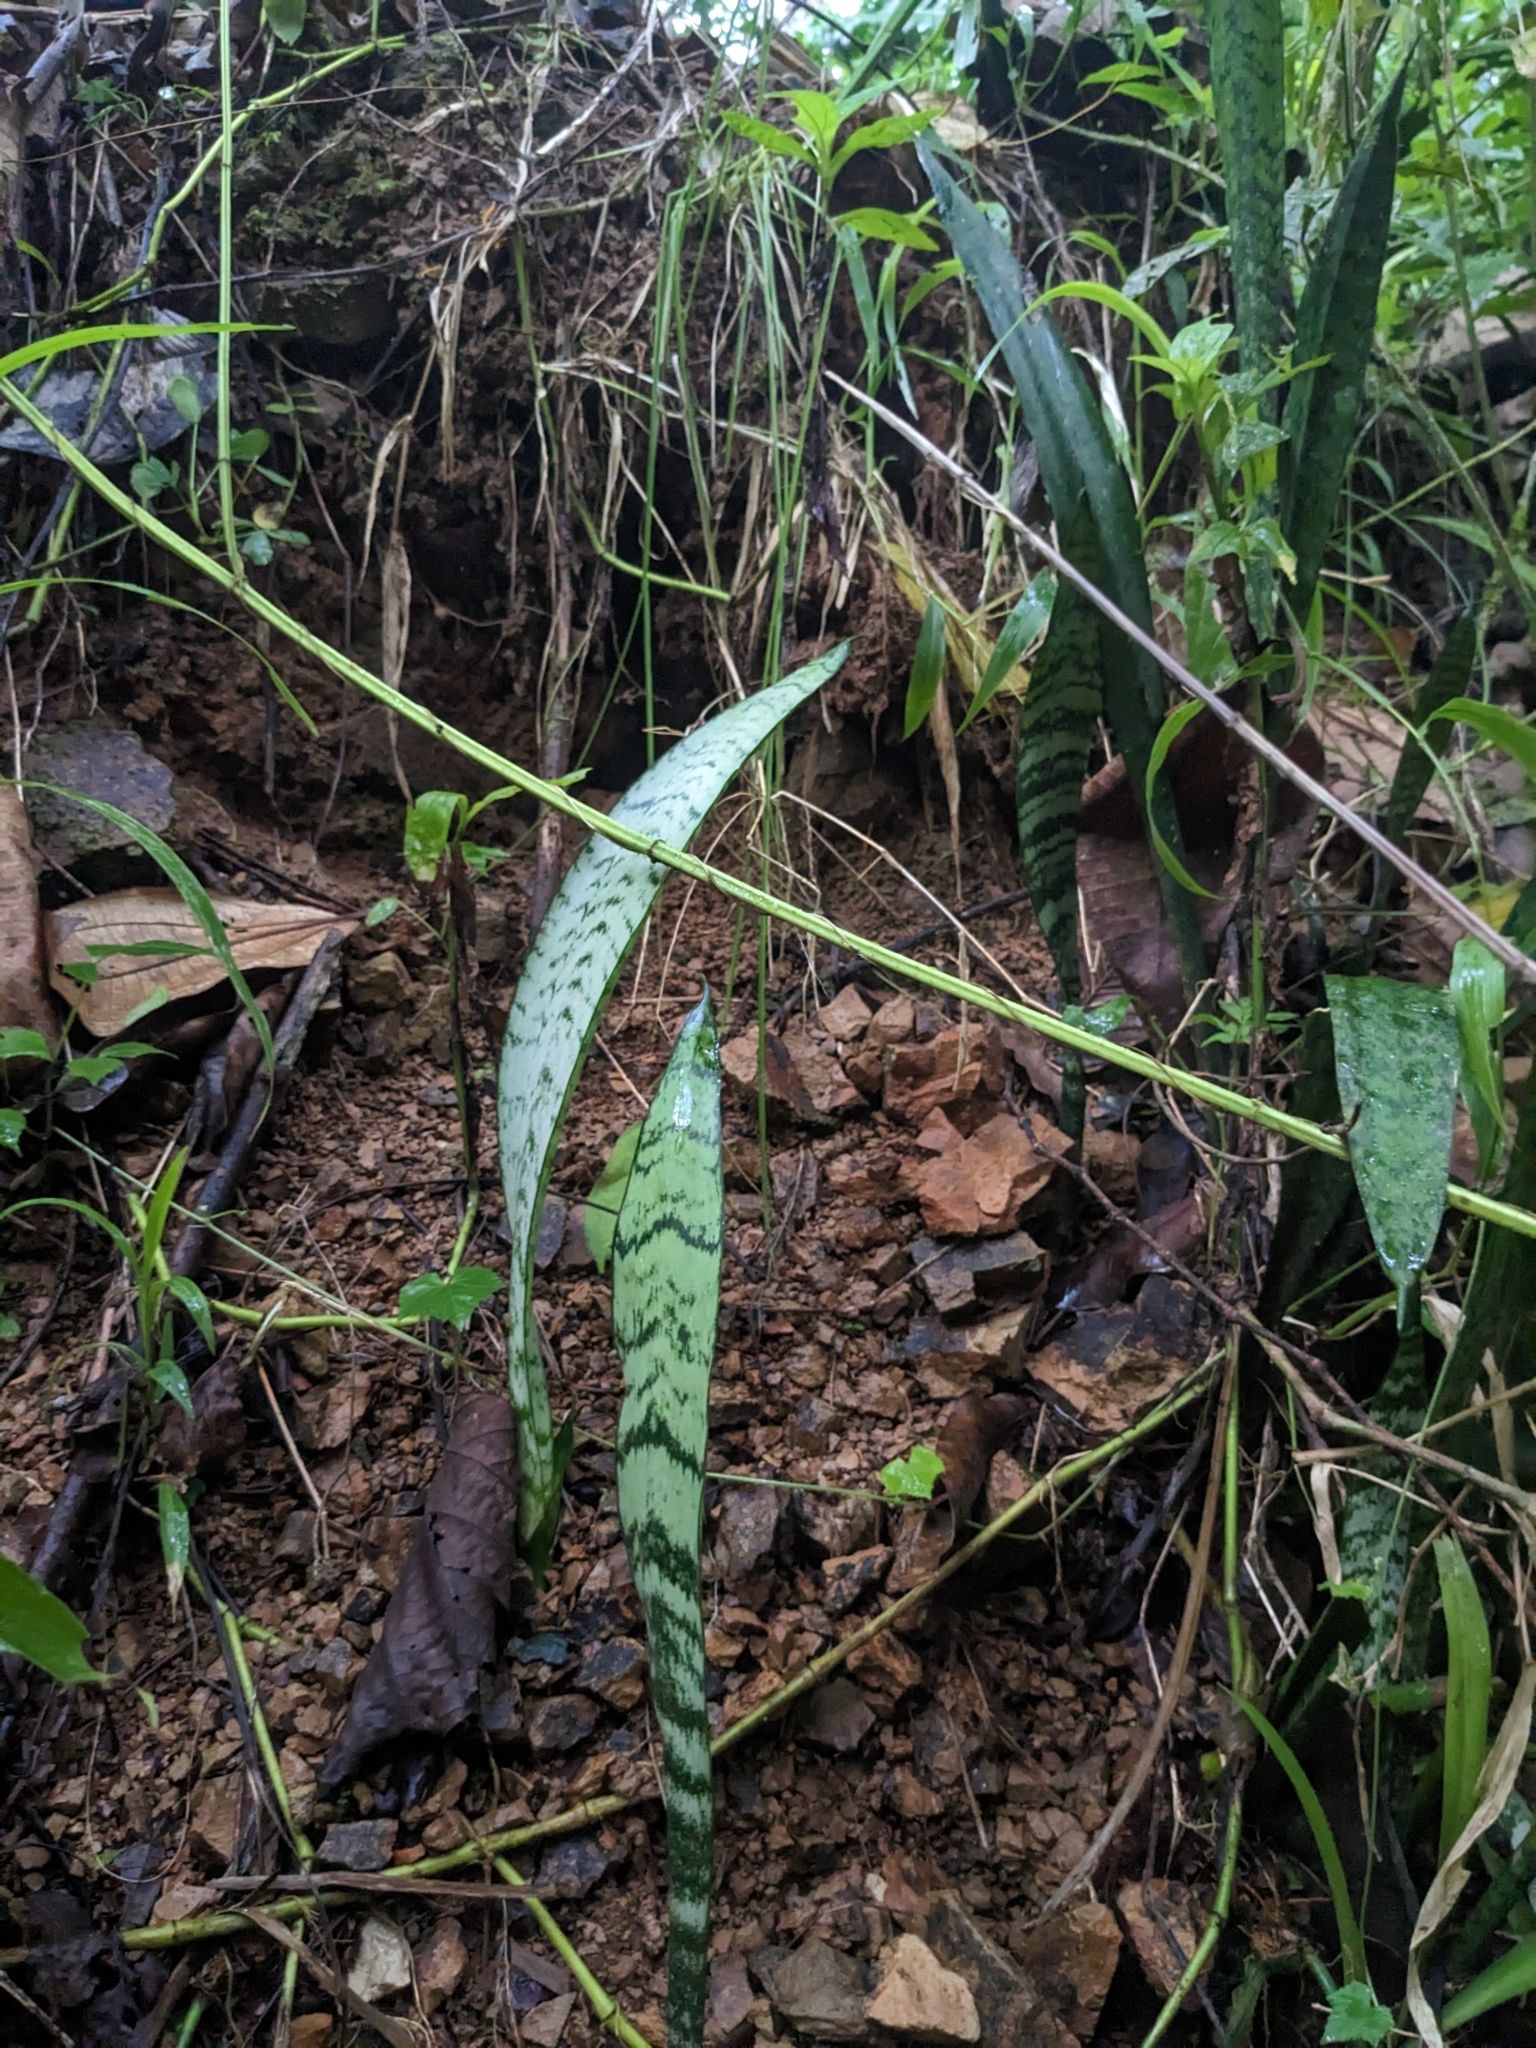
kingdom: Plantae
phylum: Tracheophyta
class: Liliopsida
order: Asparagales
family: Asparagaceae
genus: Dracaena
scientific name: Dracaena trifasciata
